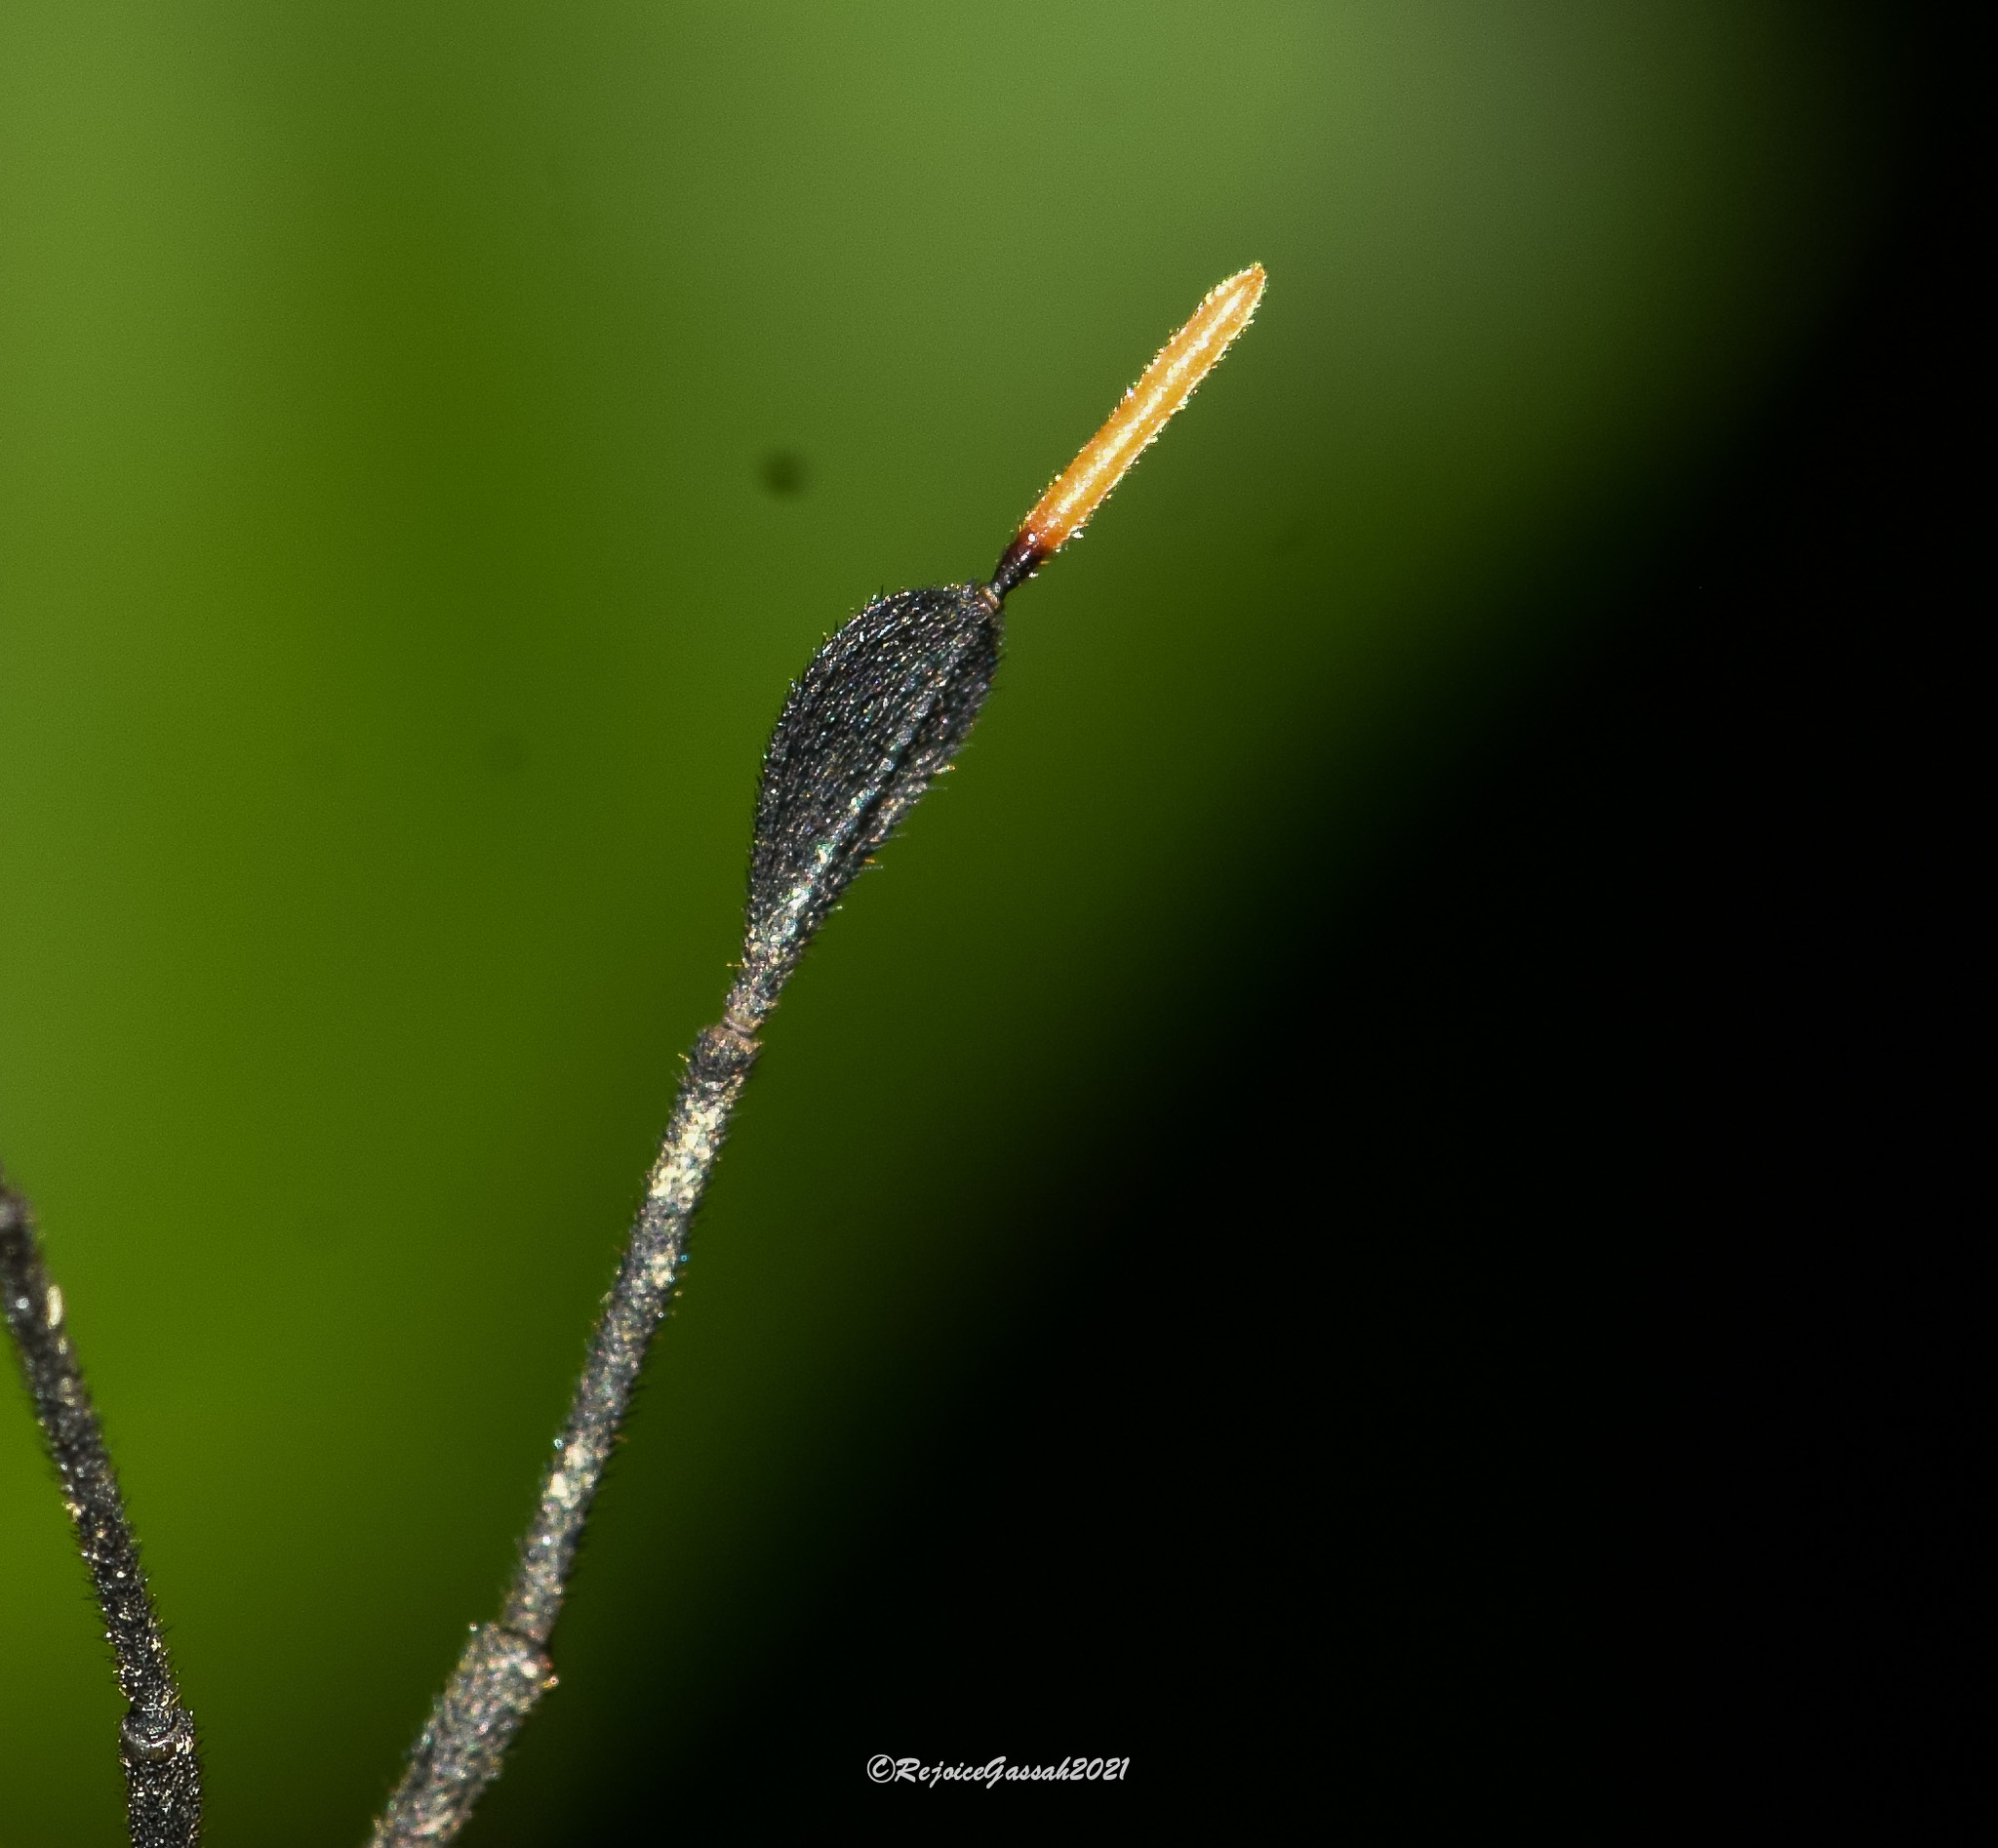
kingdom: Animalia
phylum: Arthropoda
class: Insecta
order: Hemiptera
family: Coreidae
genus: Dalader
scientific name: Dalader planiventris
